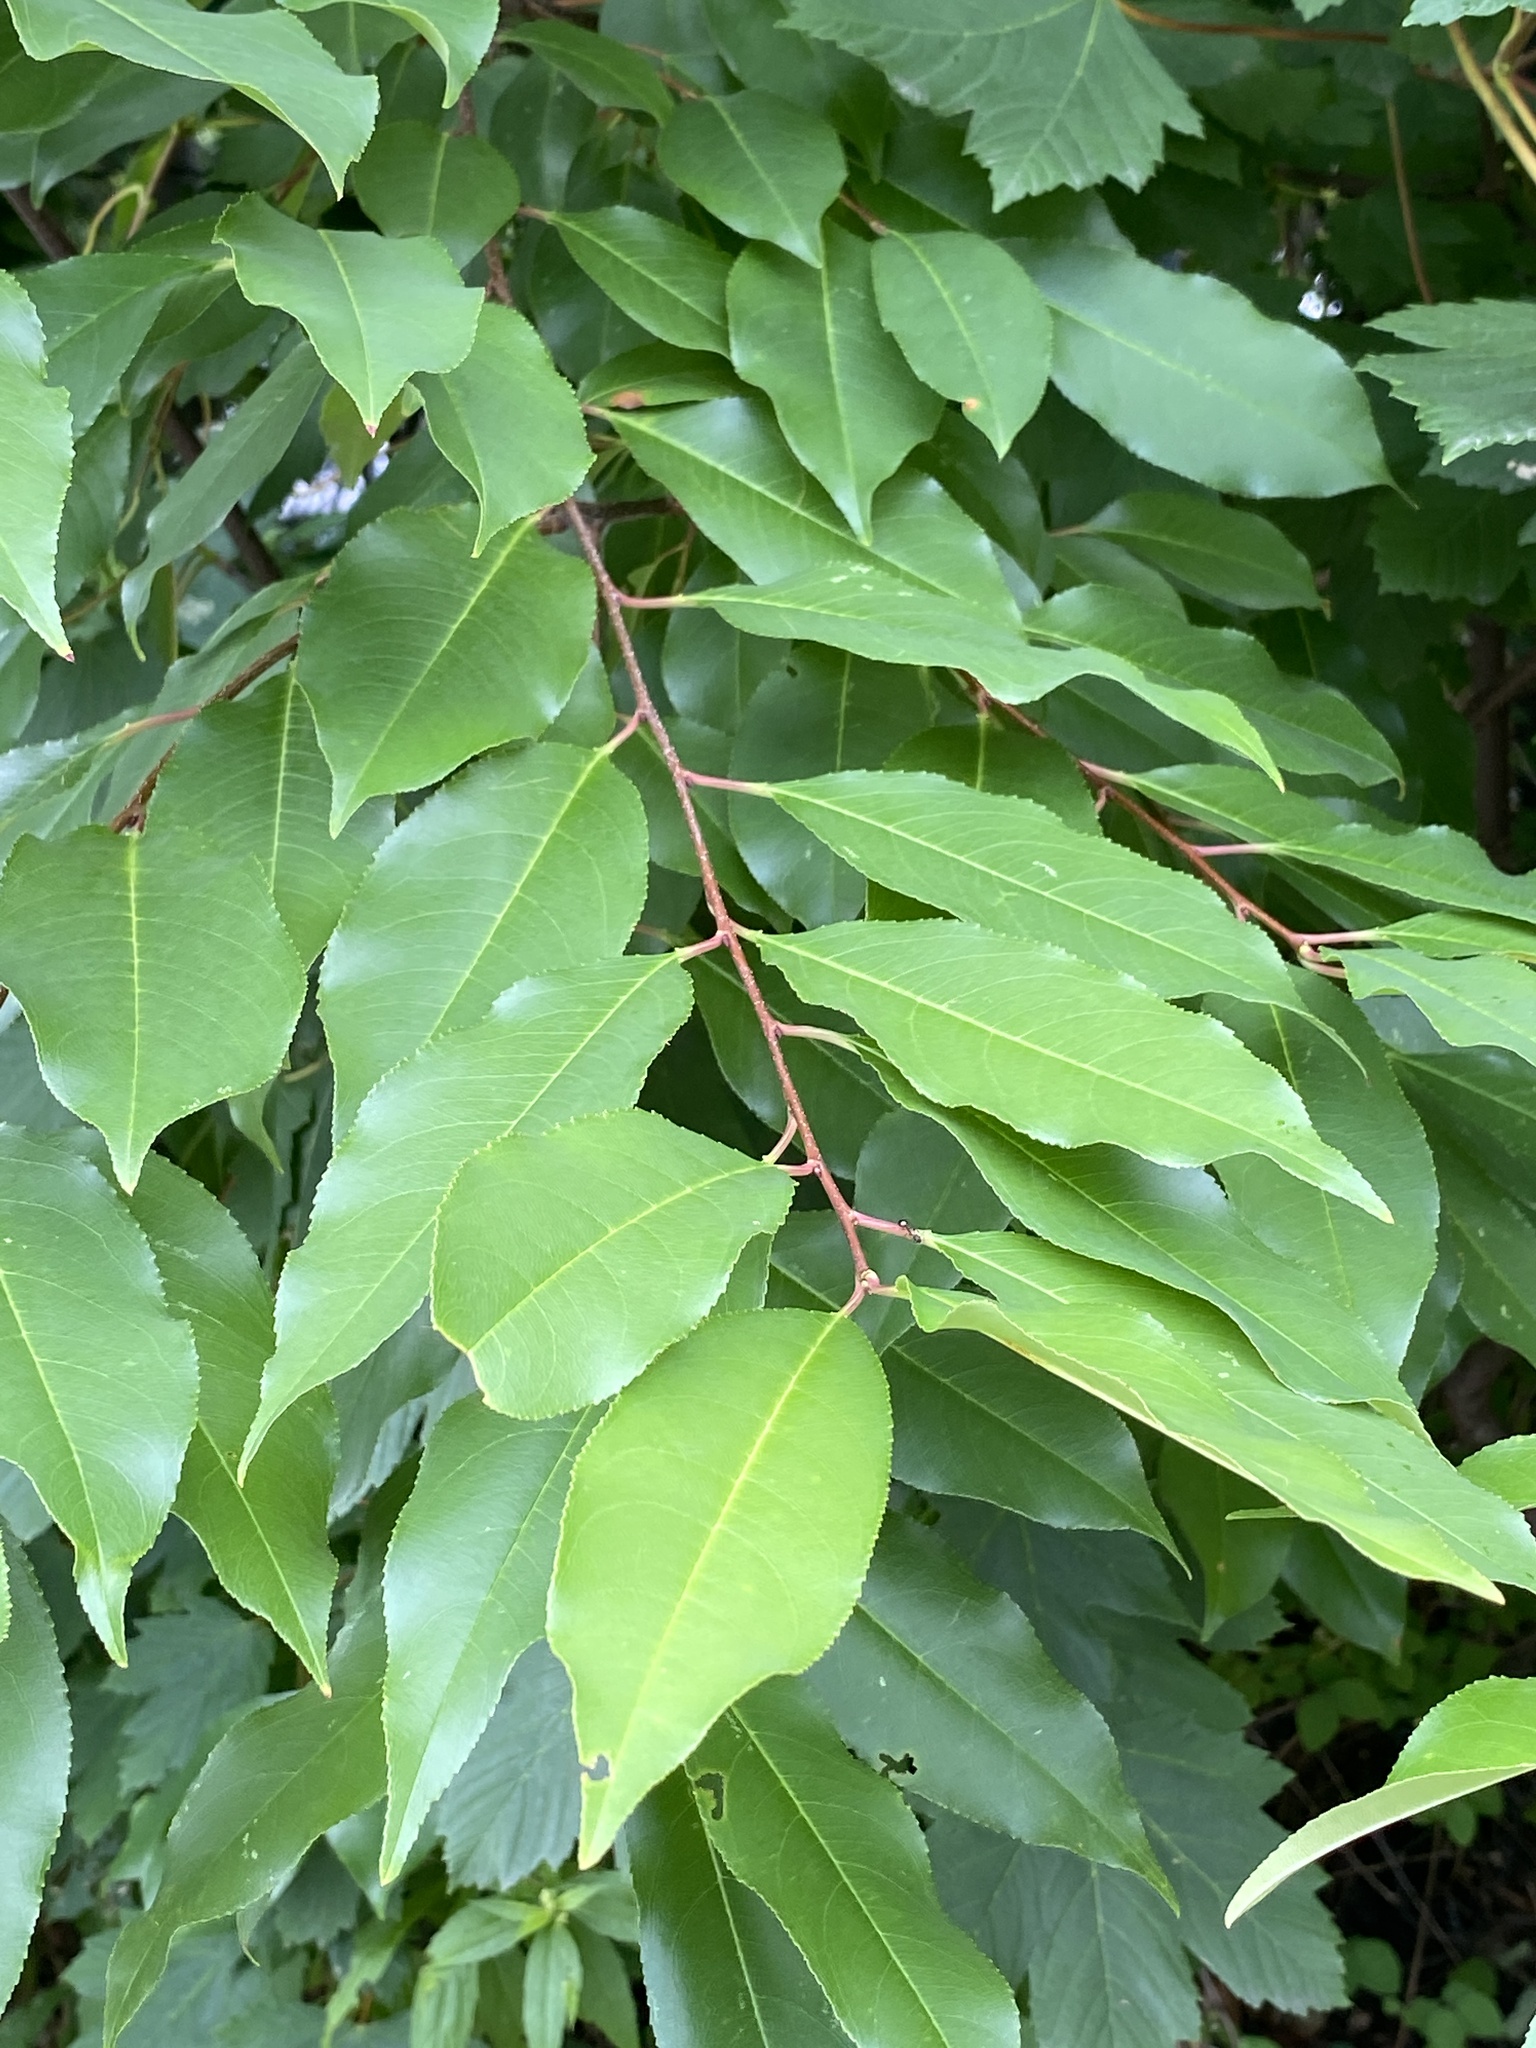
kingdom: Plantae
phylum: Tracheophyta
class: Magnoliopsida
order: Rosales
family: Rosaceae
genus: Prunus
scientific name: Prunus serotina
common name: Black cherry
